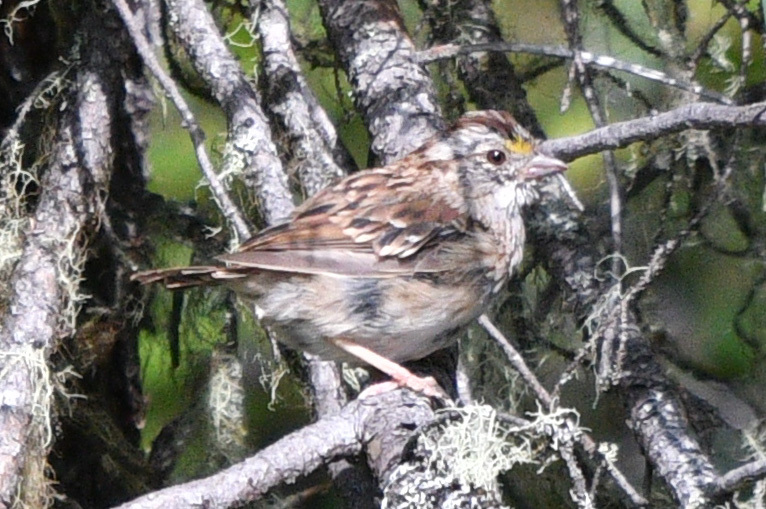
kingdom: Animalia
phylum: Chordata
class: Aves
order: Passeriformes
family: Passerellidae
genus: Zonotrichia
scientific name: Zonotrichia albicollis
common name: White-throated sparrow
